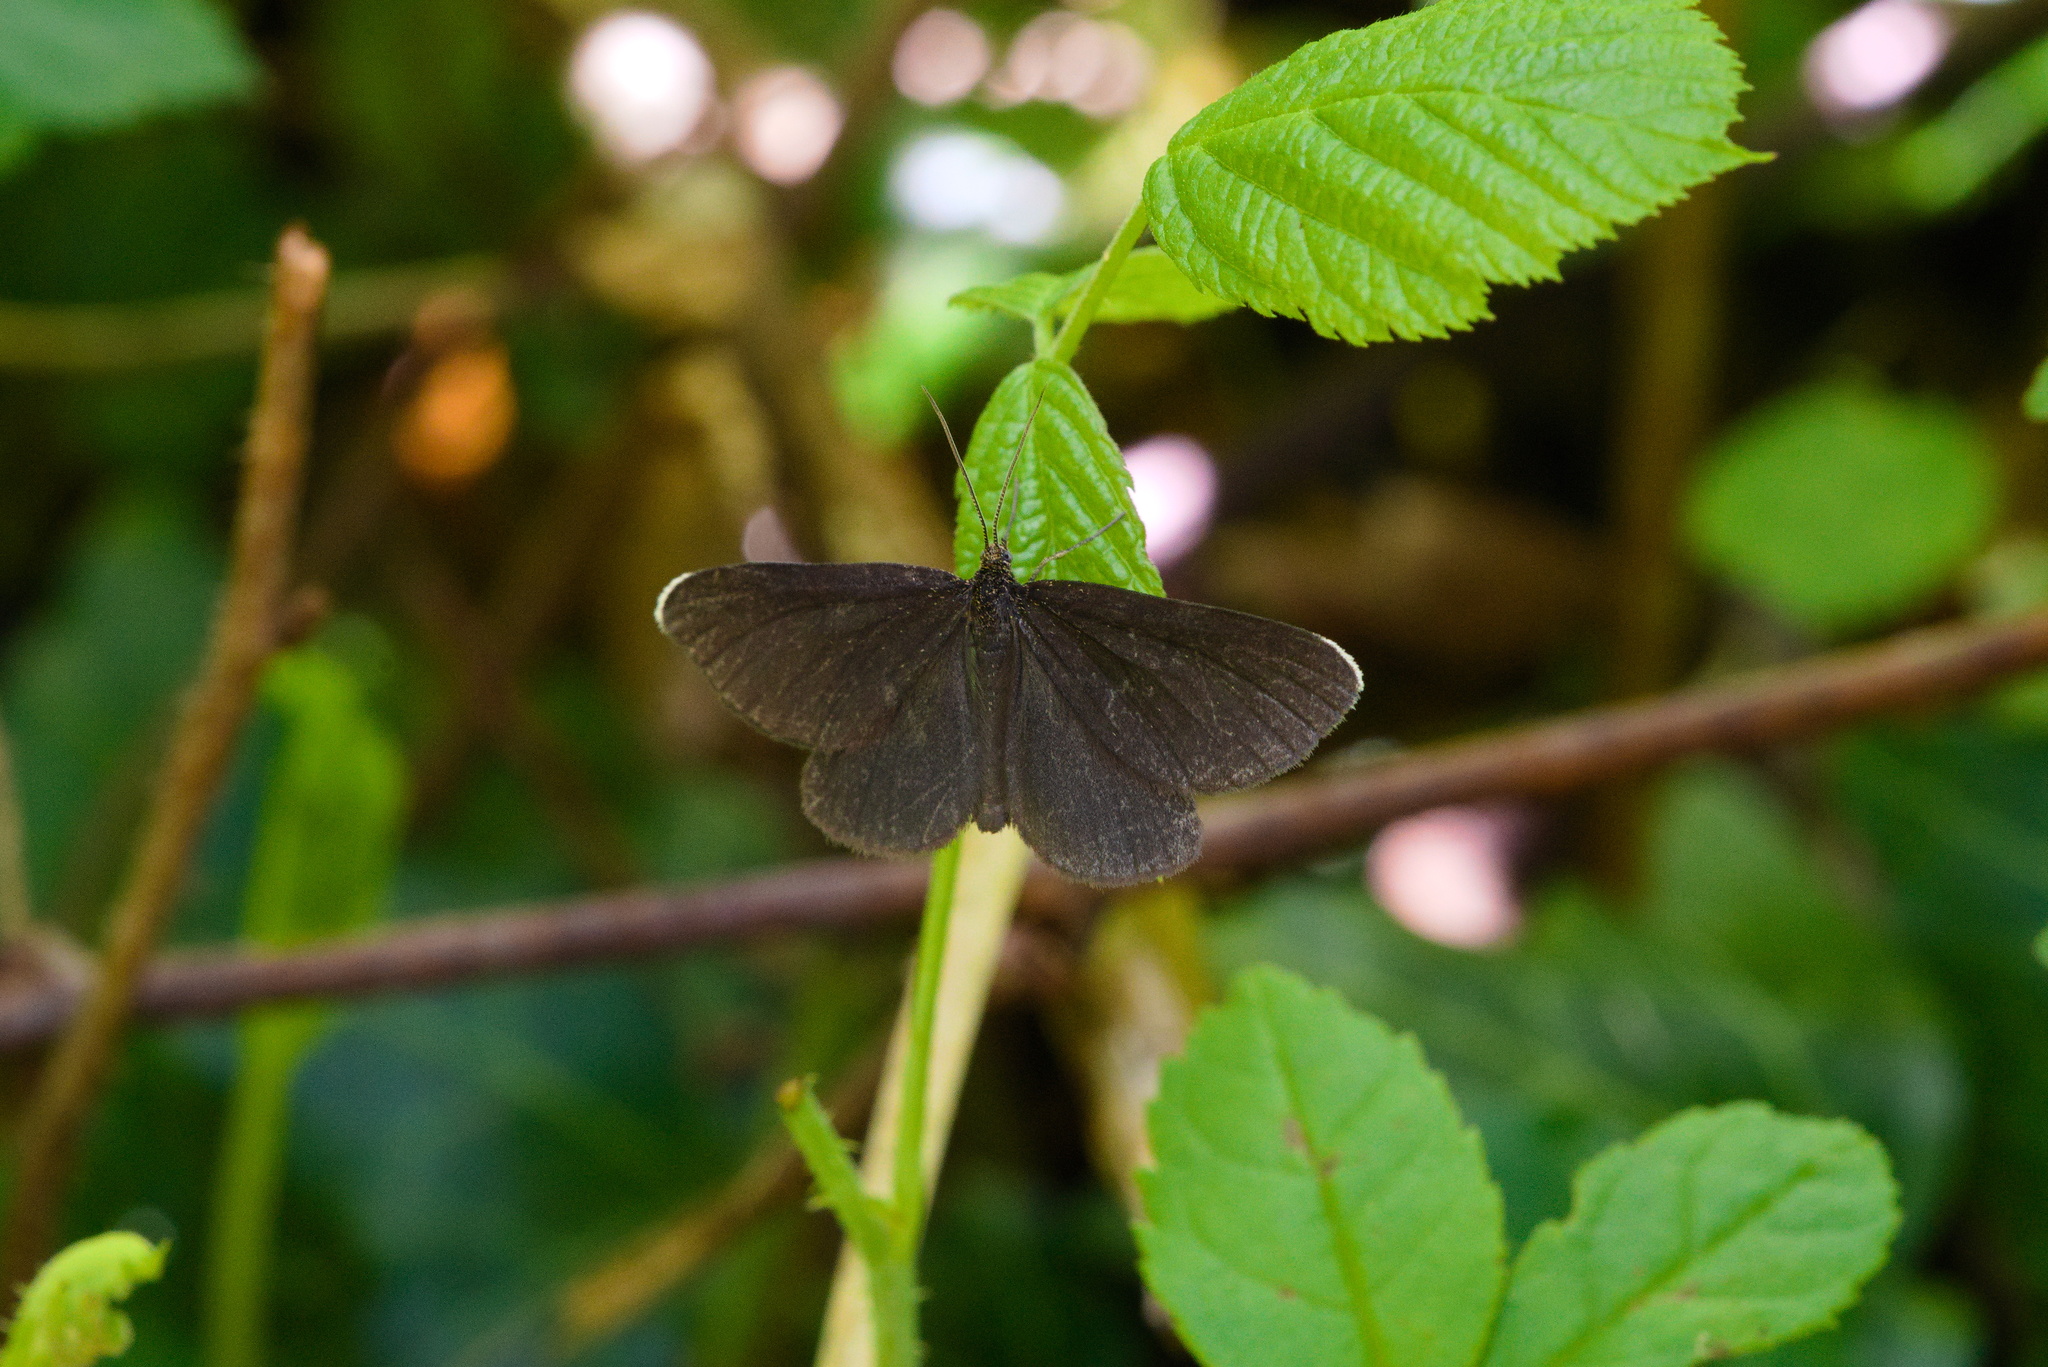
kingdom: Animalia
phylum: Arthropoda
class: Insecta
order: Lepidoptera
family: Geometridae
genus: Odezia
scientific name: Odezia atrata
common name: Chimney sweeper
